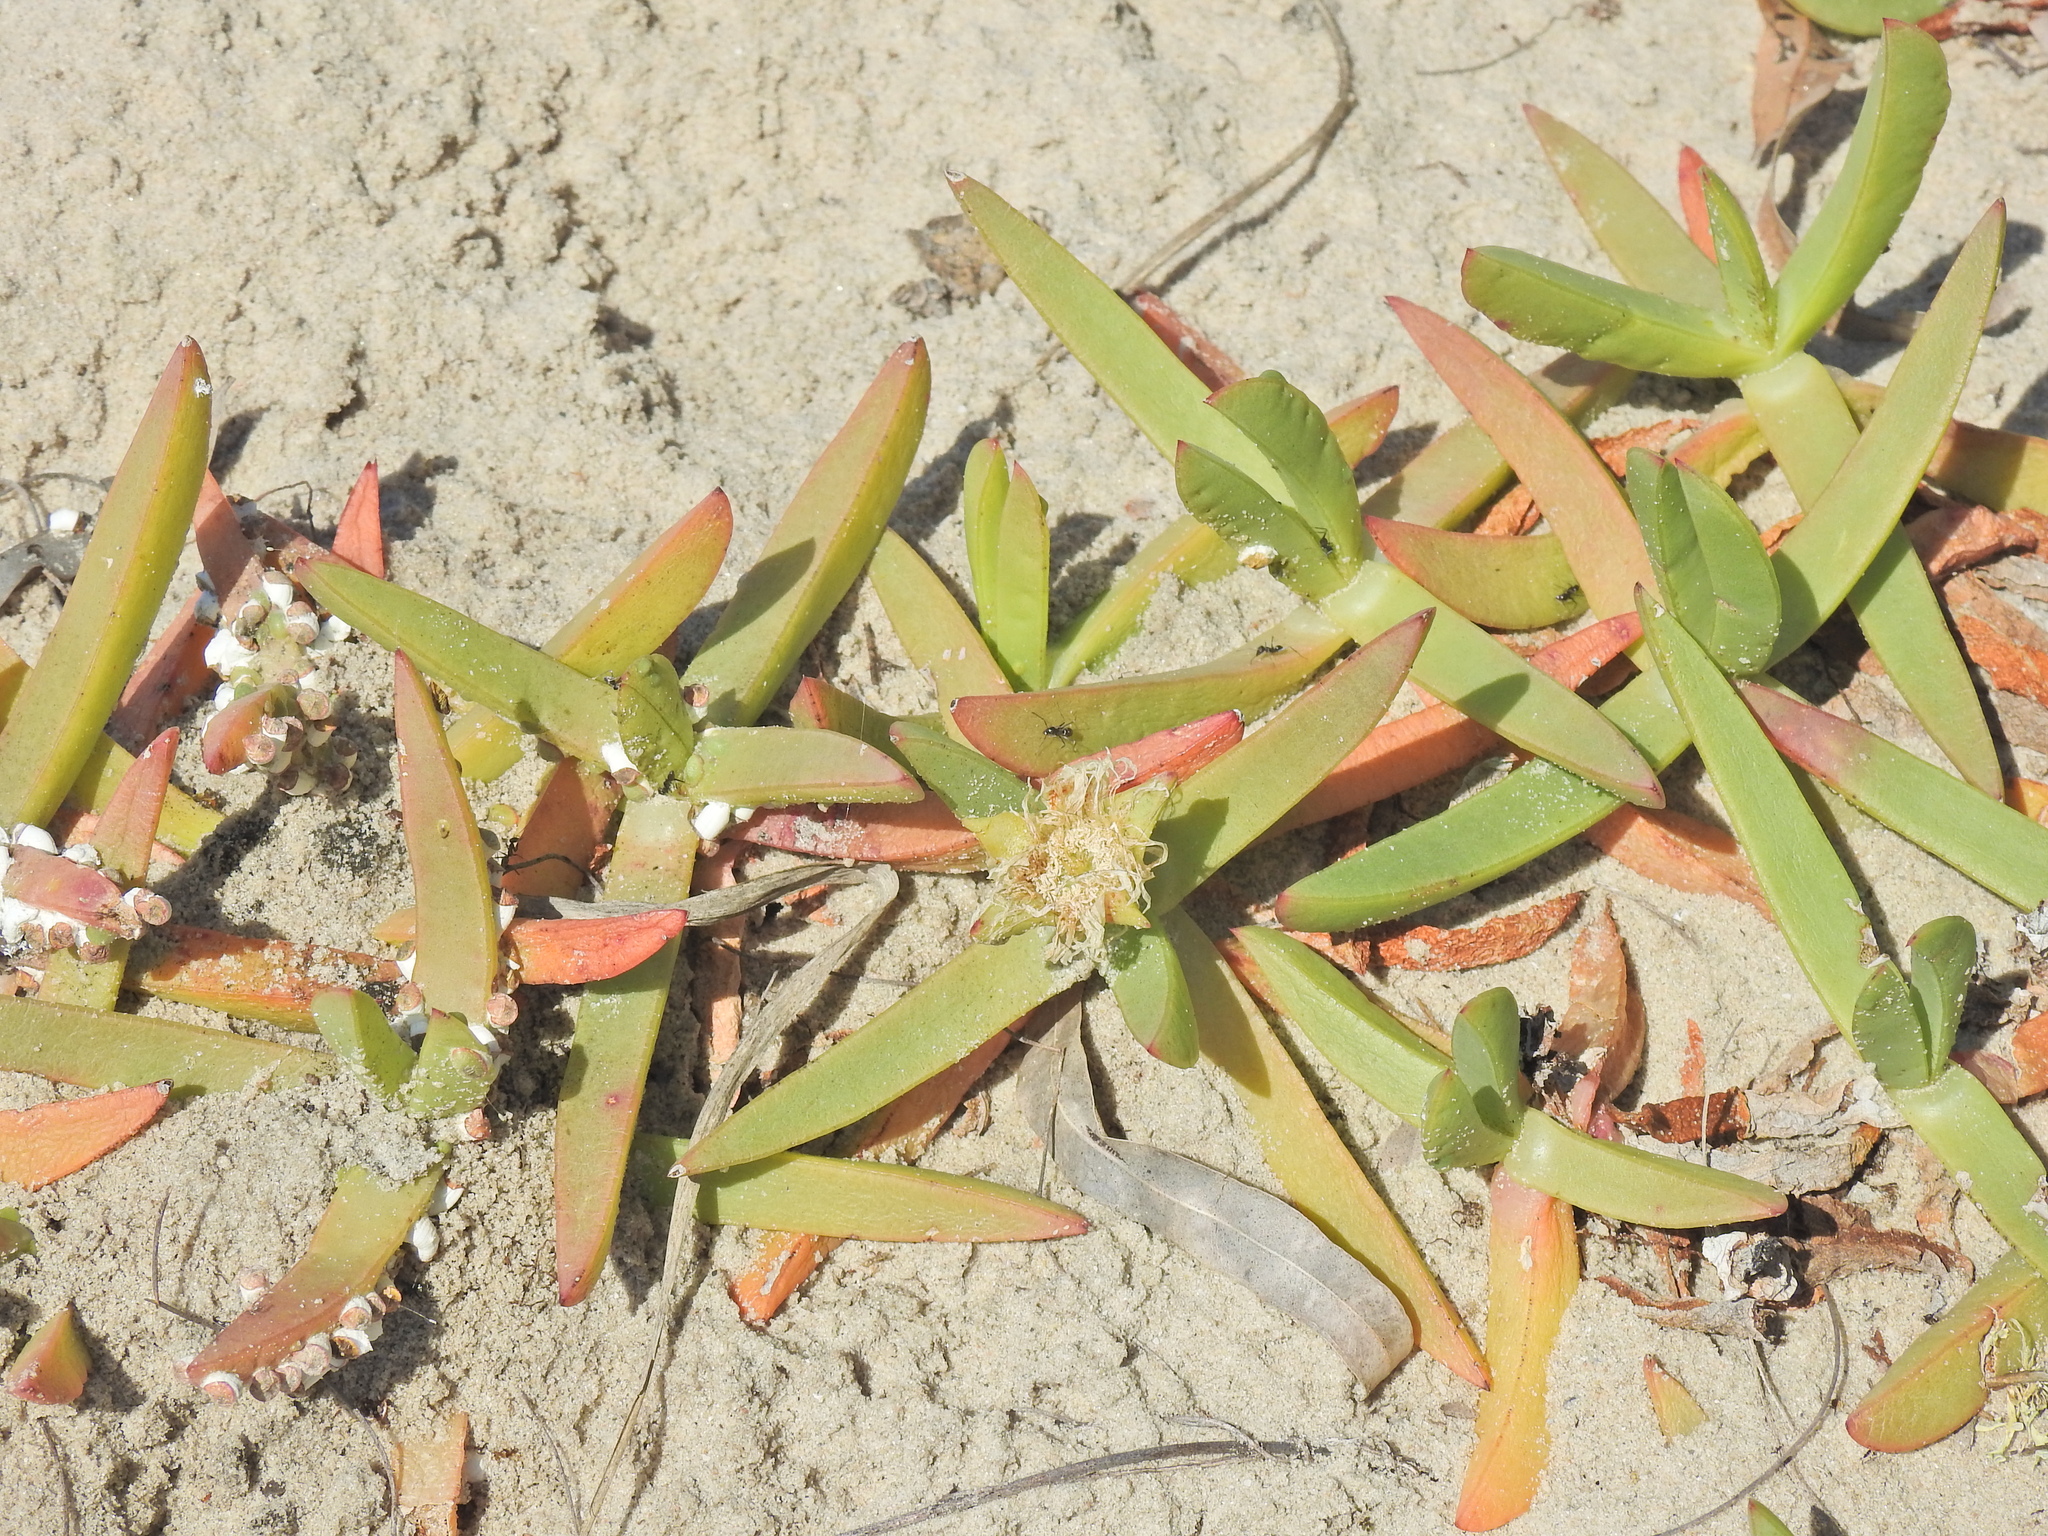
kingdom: Plantae
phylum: Tracheophyta
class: Magnoliopsida
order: Caryophyllales
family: Aizoaceae
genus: Carpobrotus
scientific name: Carpobrotus glaucescens
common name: Angular sea-fig
